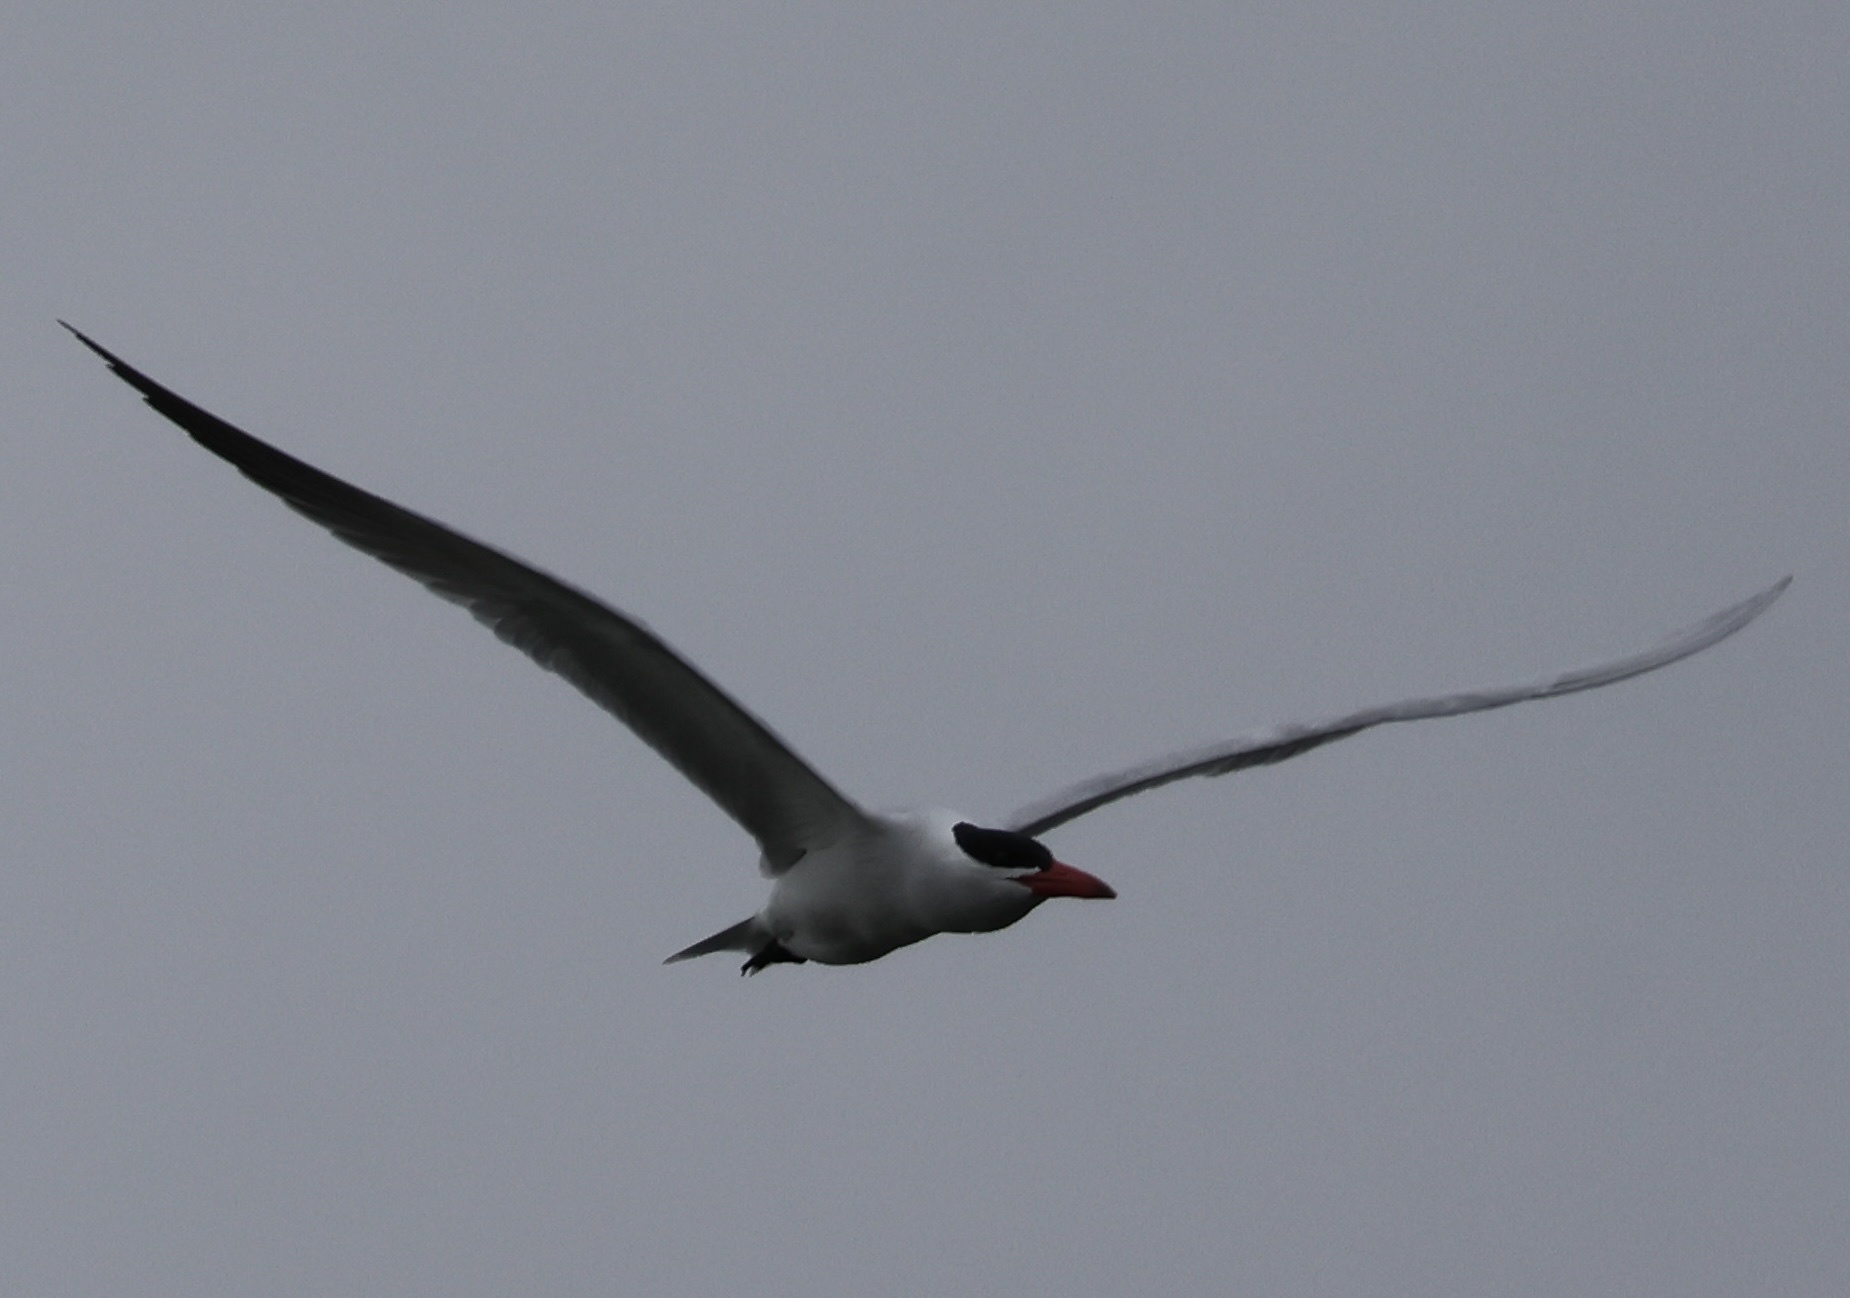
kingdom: Animalia
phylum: Chordata
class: Aves
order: Charadriiformes
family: Laridae
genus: Hydroprogne
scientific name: Hydroprogne caspia
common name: Caspian tern
